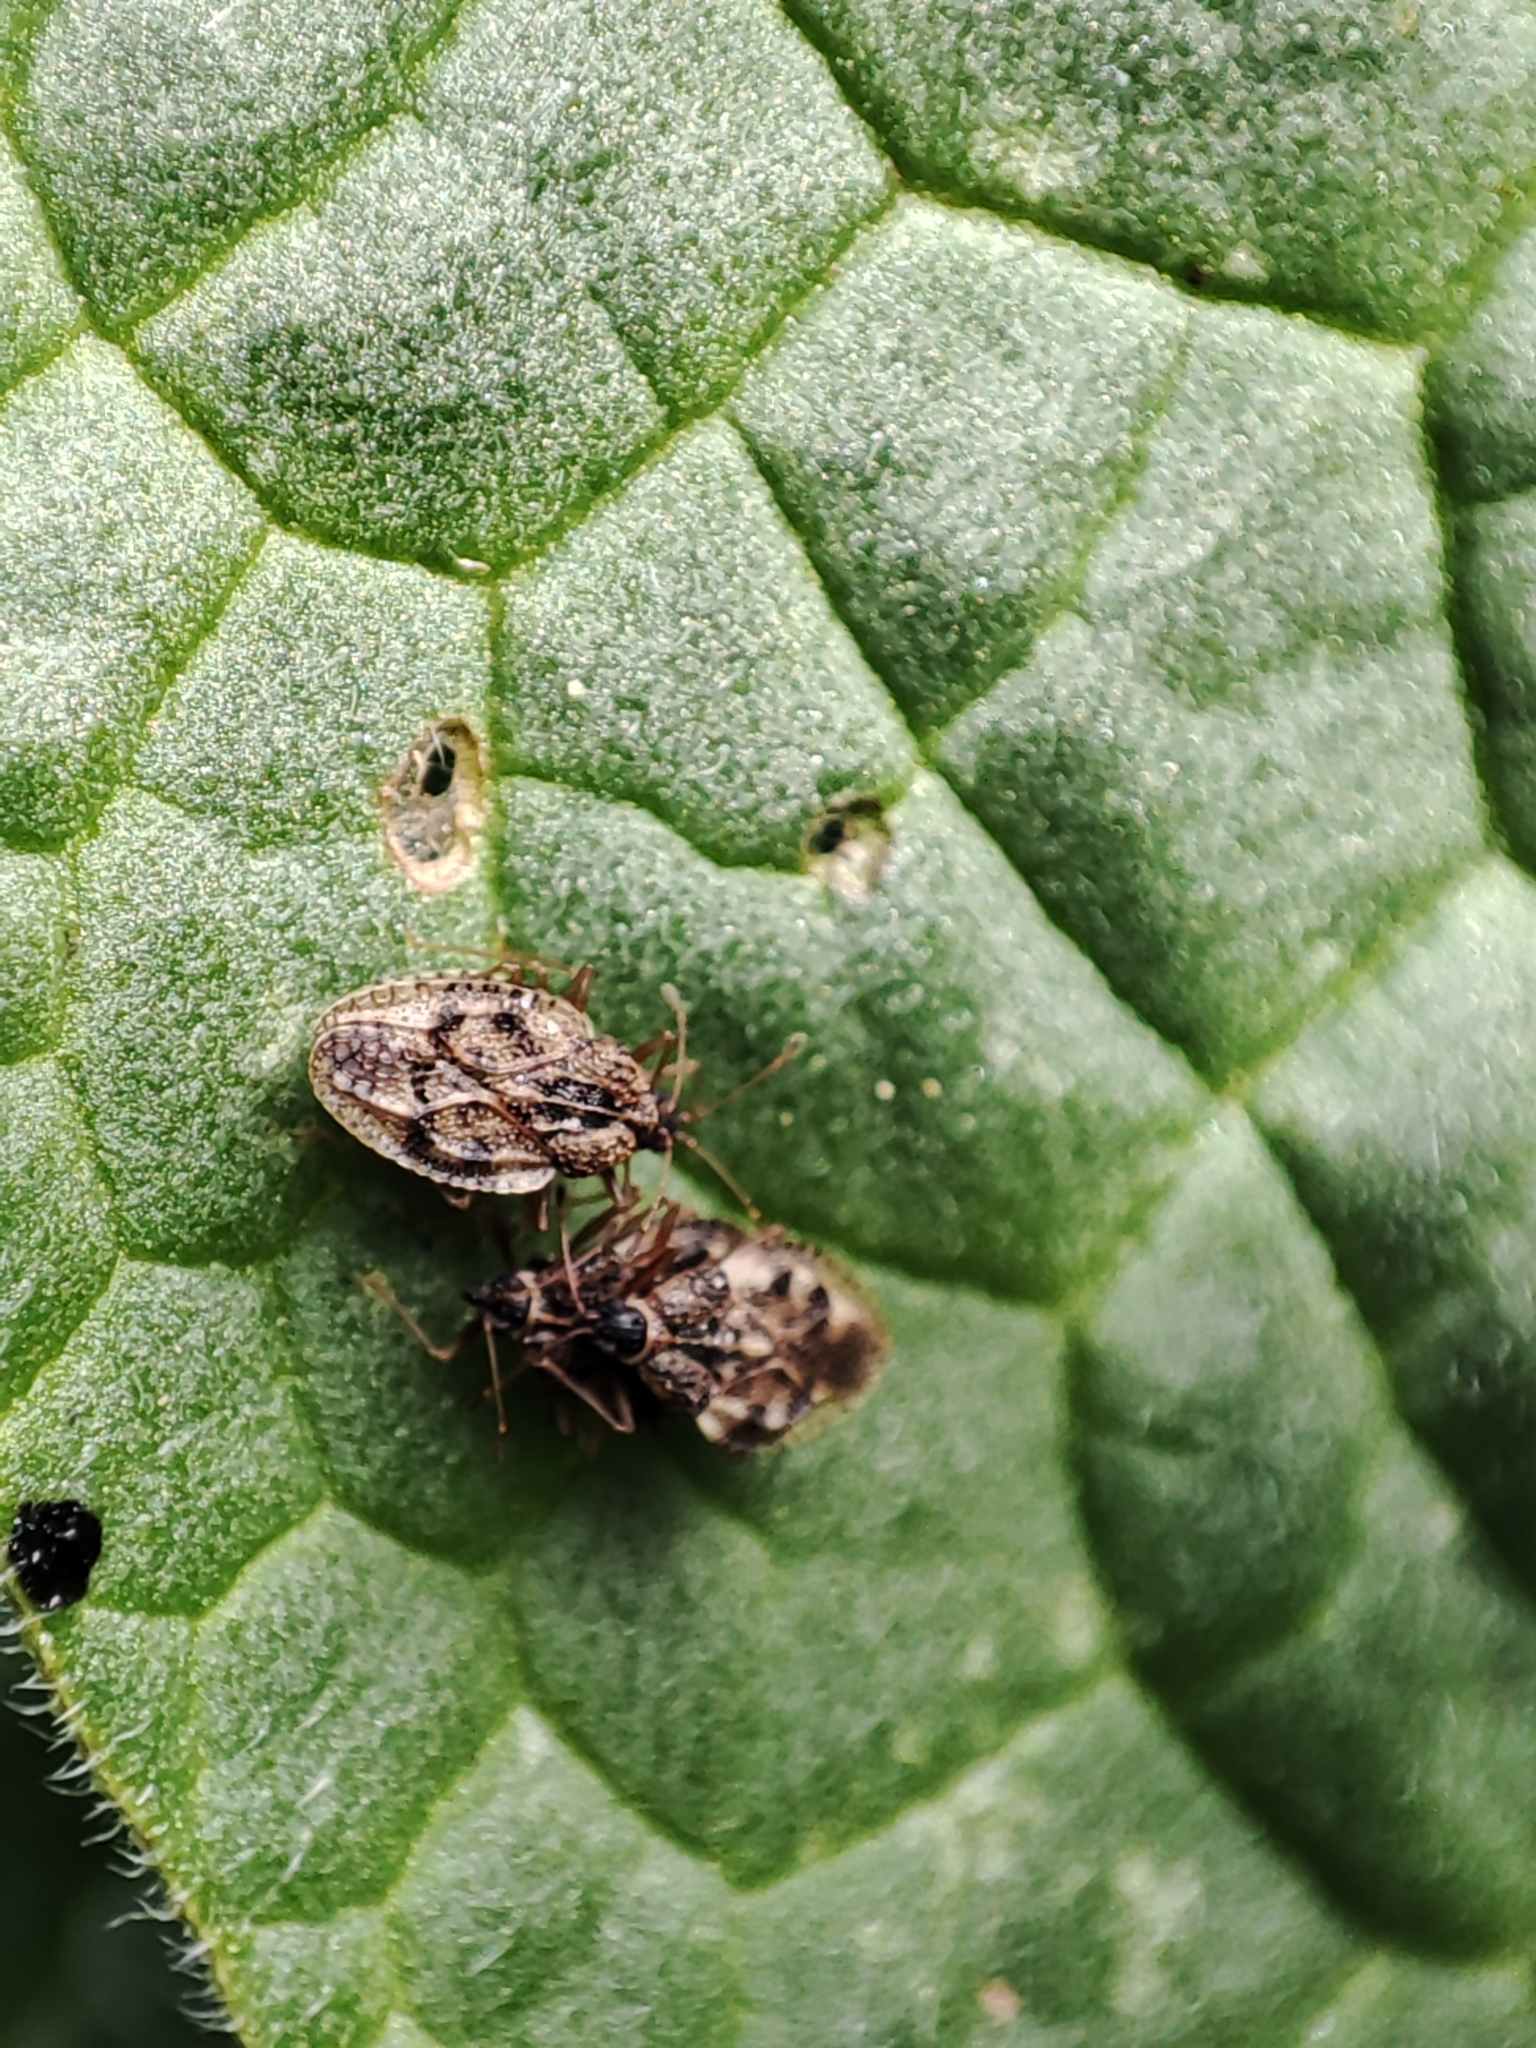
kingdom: Animalia
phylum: Arthropoda
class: Insecta
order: Hemiptera
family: Tingidae
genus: Dictyla
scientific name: Dictyla humuli
